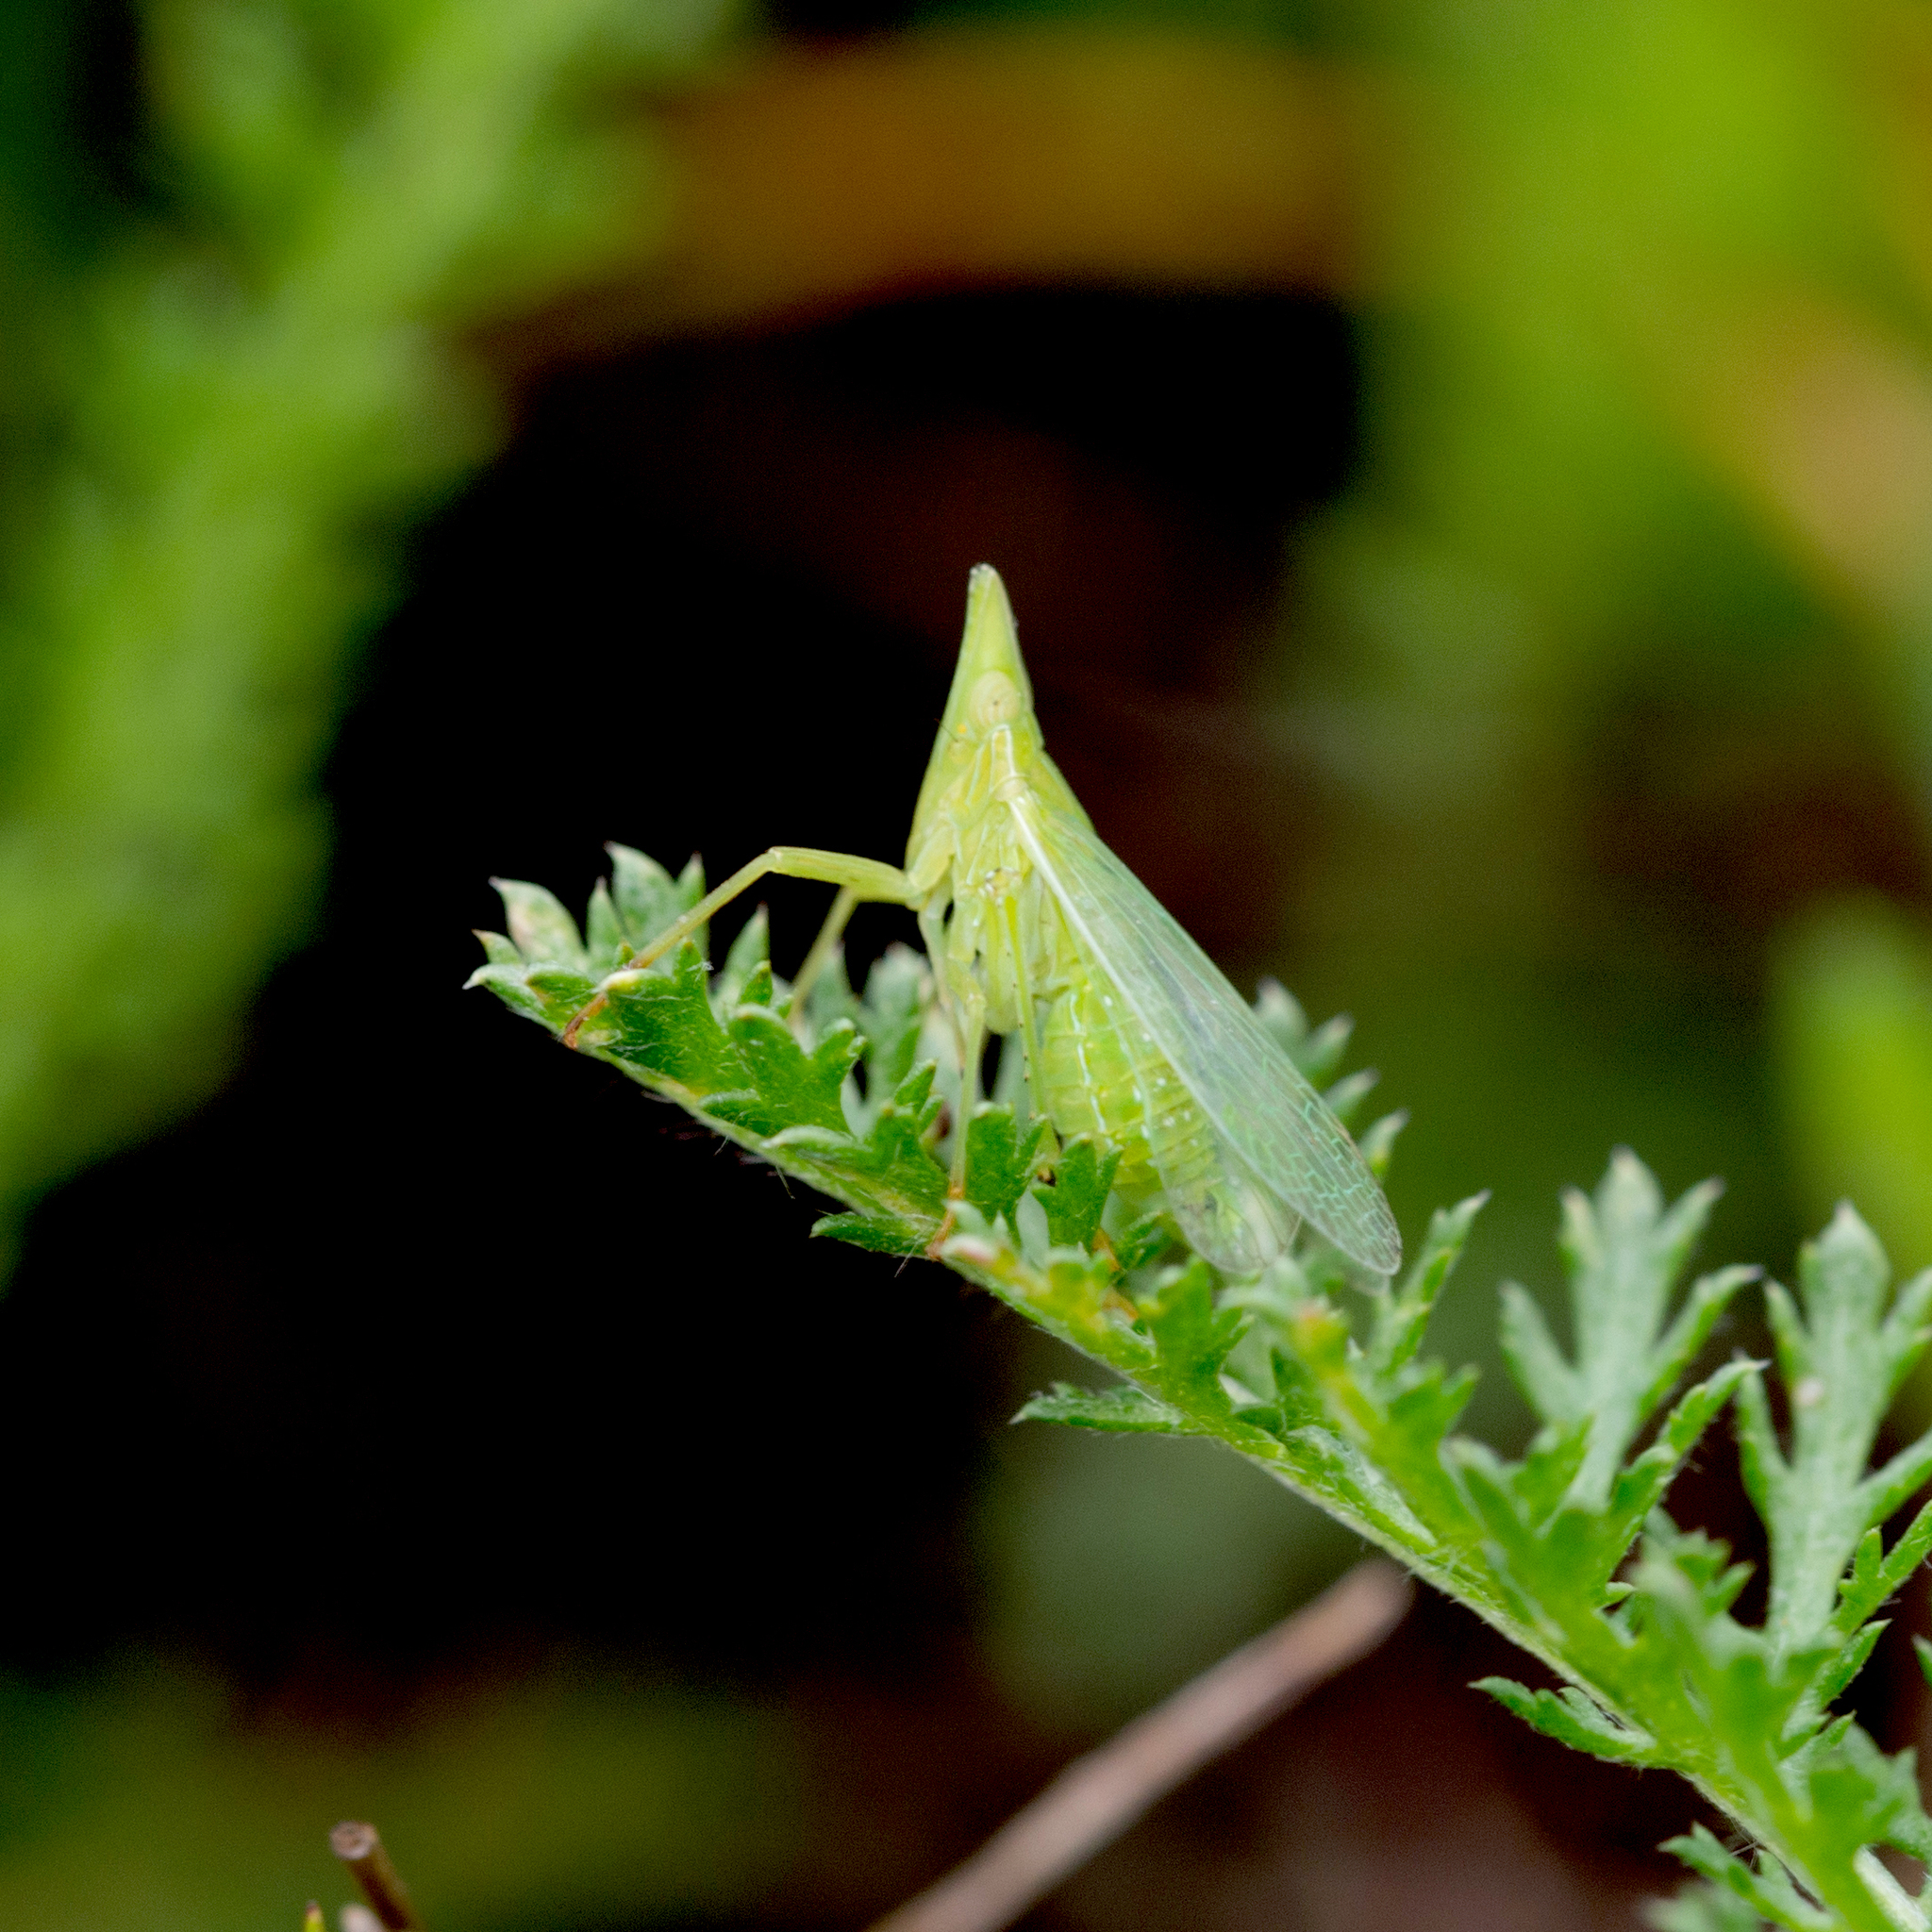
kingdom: Animalia
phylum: Arthropoda
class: Insecta
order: Hemiptera
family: Dictyopharidae
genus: Dictyophara
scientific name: Dictyophara europaea
